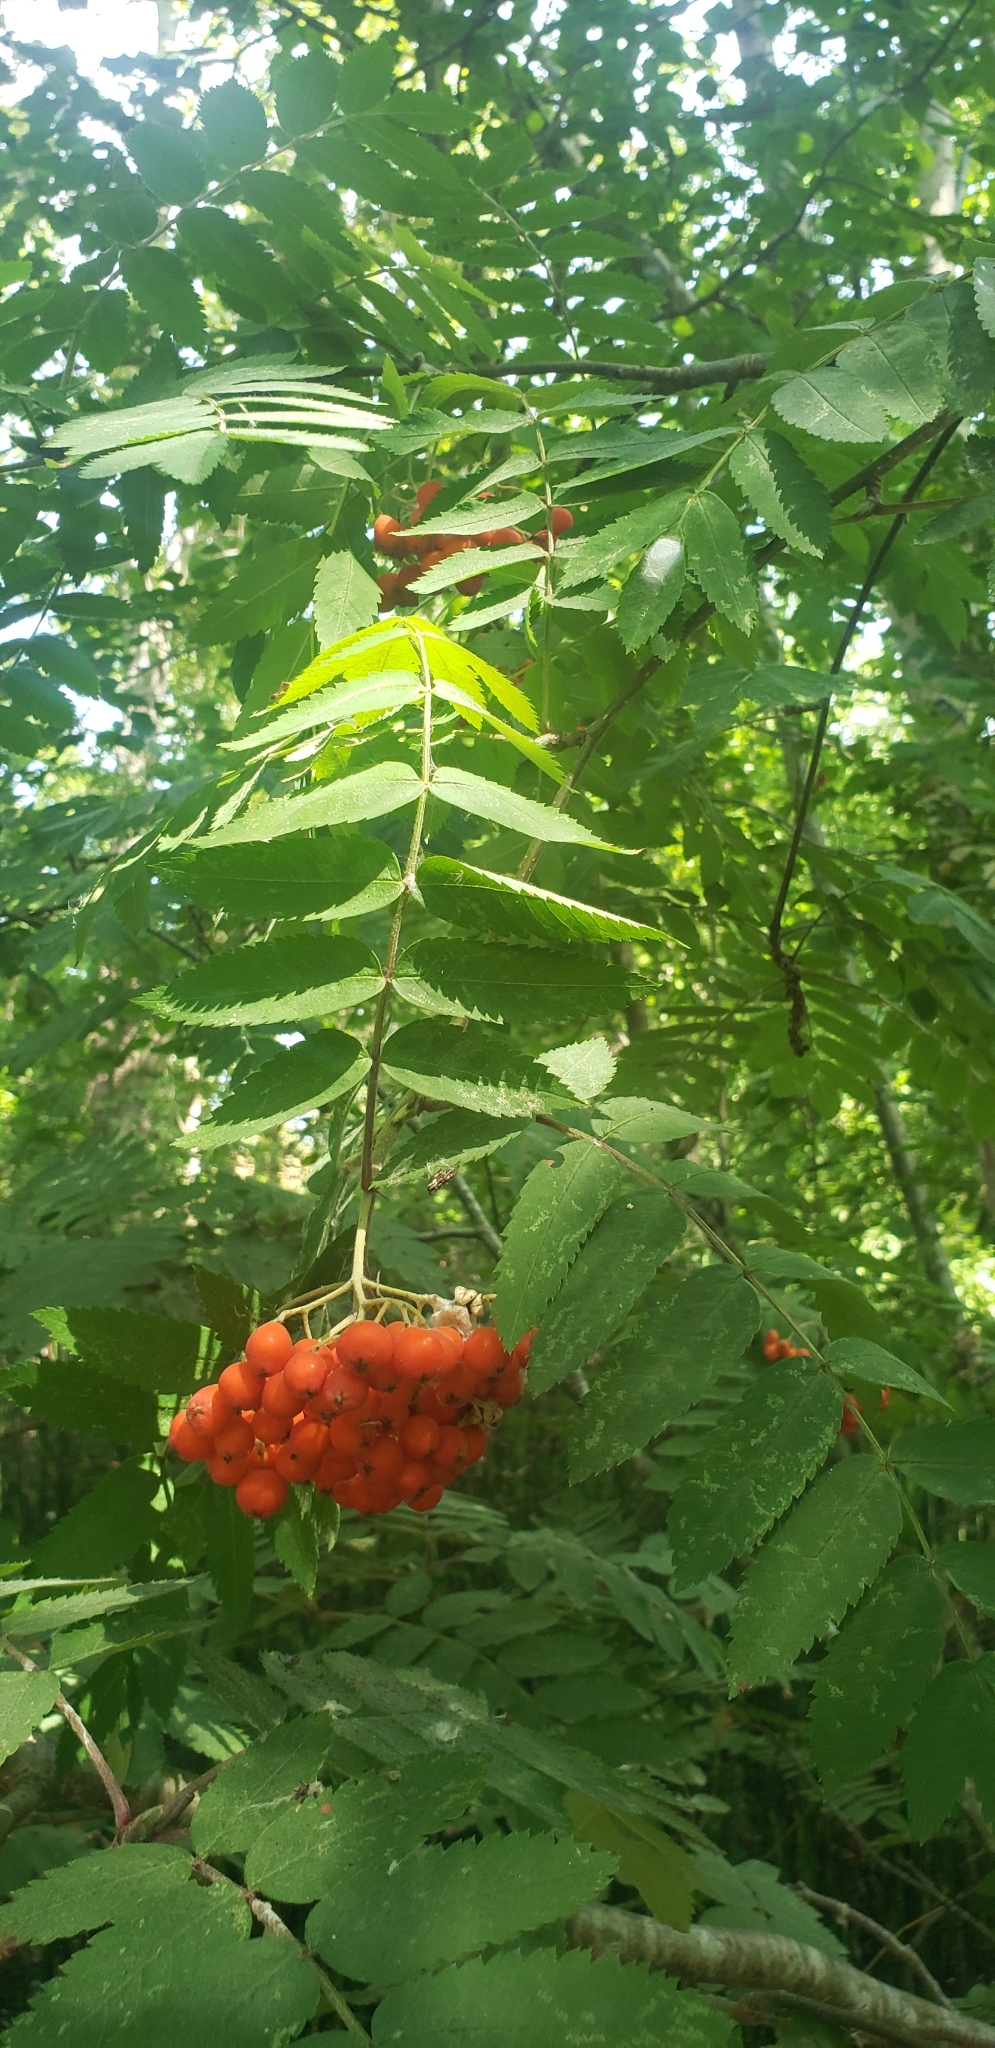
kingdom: Plantae
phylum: Tracheophyta
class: Magnoliopsida
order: Rosales
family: Rosaceae
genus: Sorbus
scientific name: Sorbus aucuparia
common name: Rowan
